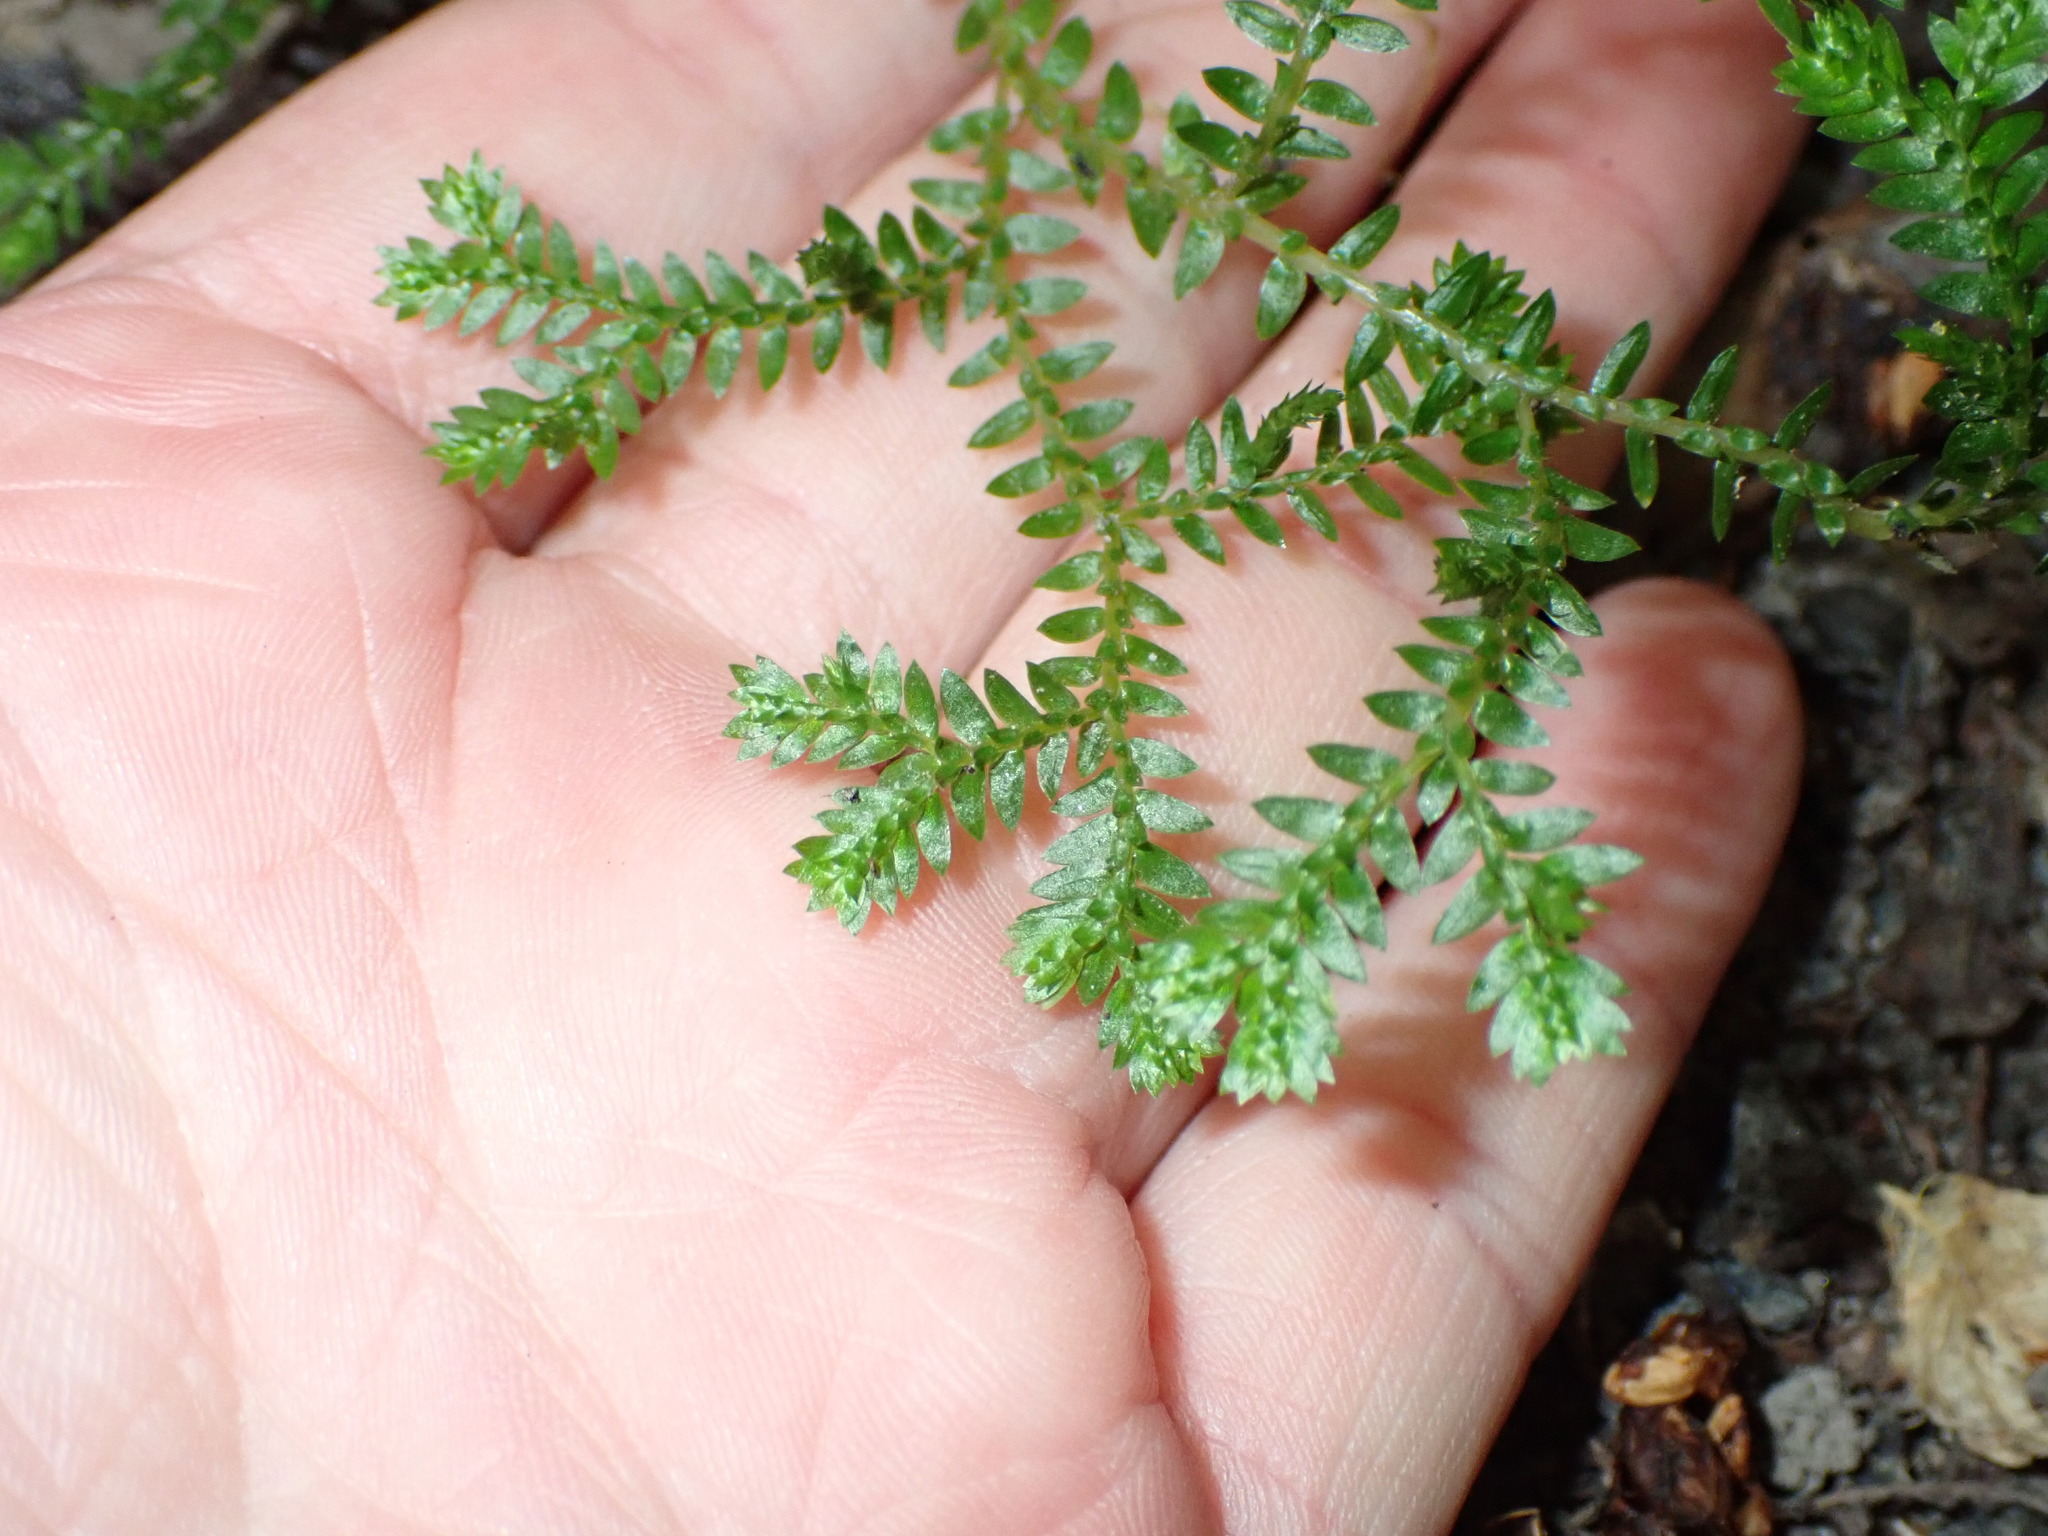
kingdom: Plantae
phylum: Tracheophyta
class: Lycopodiopsida
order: Selaginellales
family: Selaginellaceae
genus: Selaginella
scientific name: Selaginella kraussiana
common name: Krauss' spikemoss
